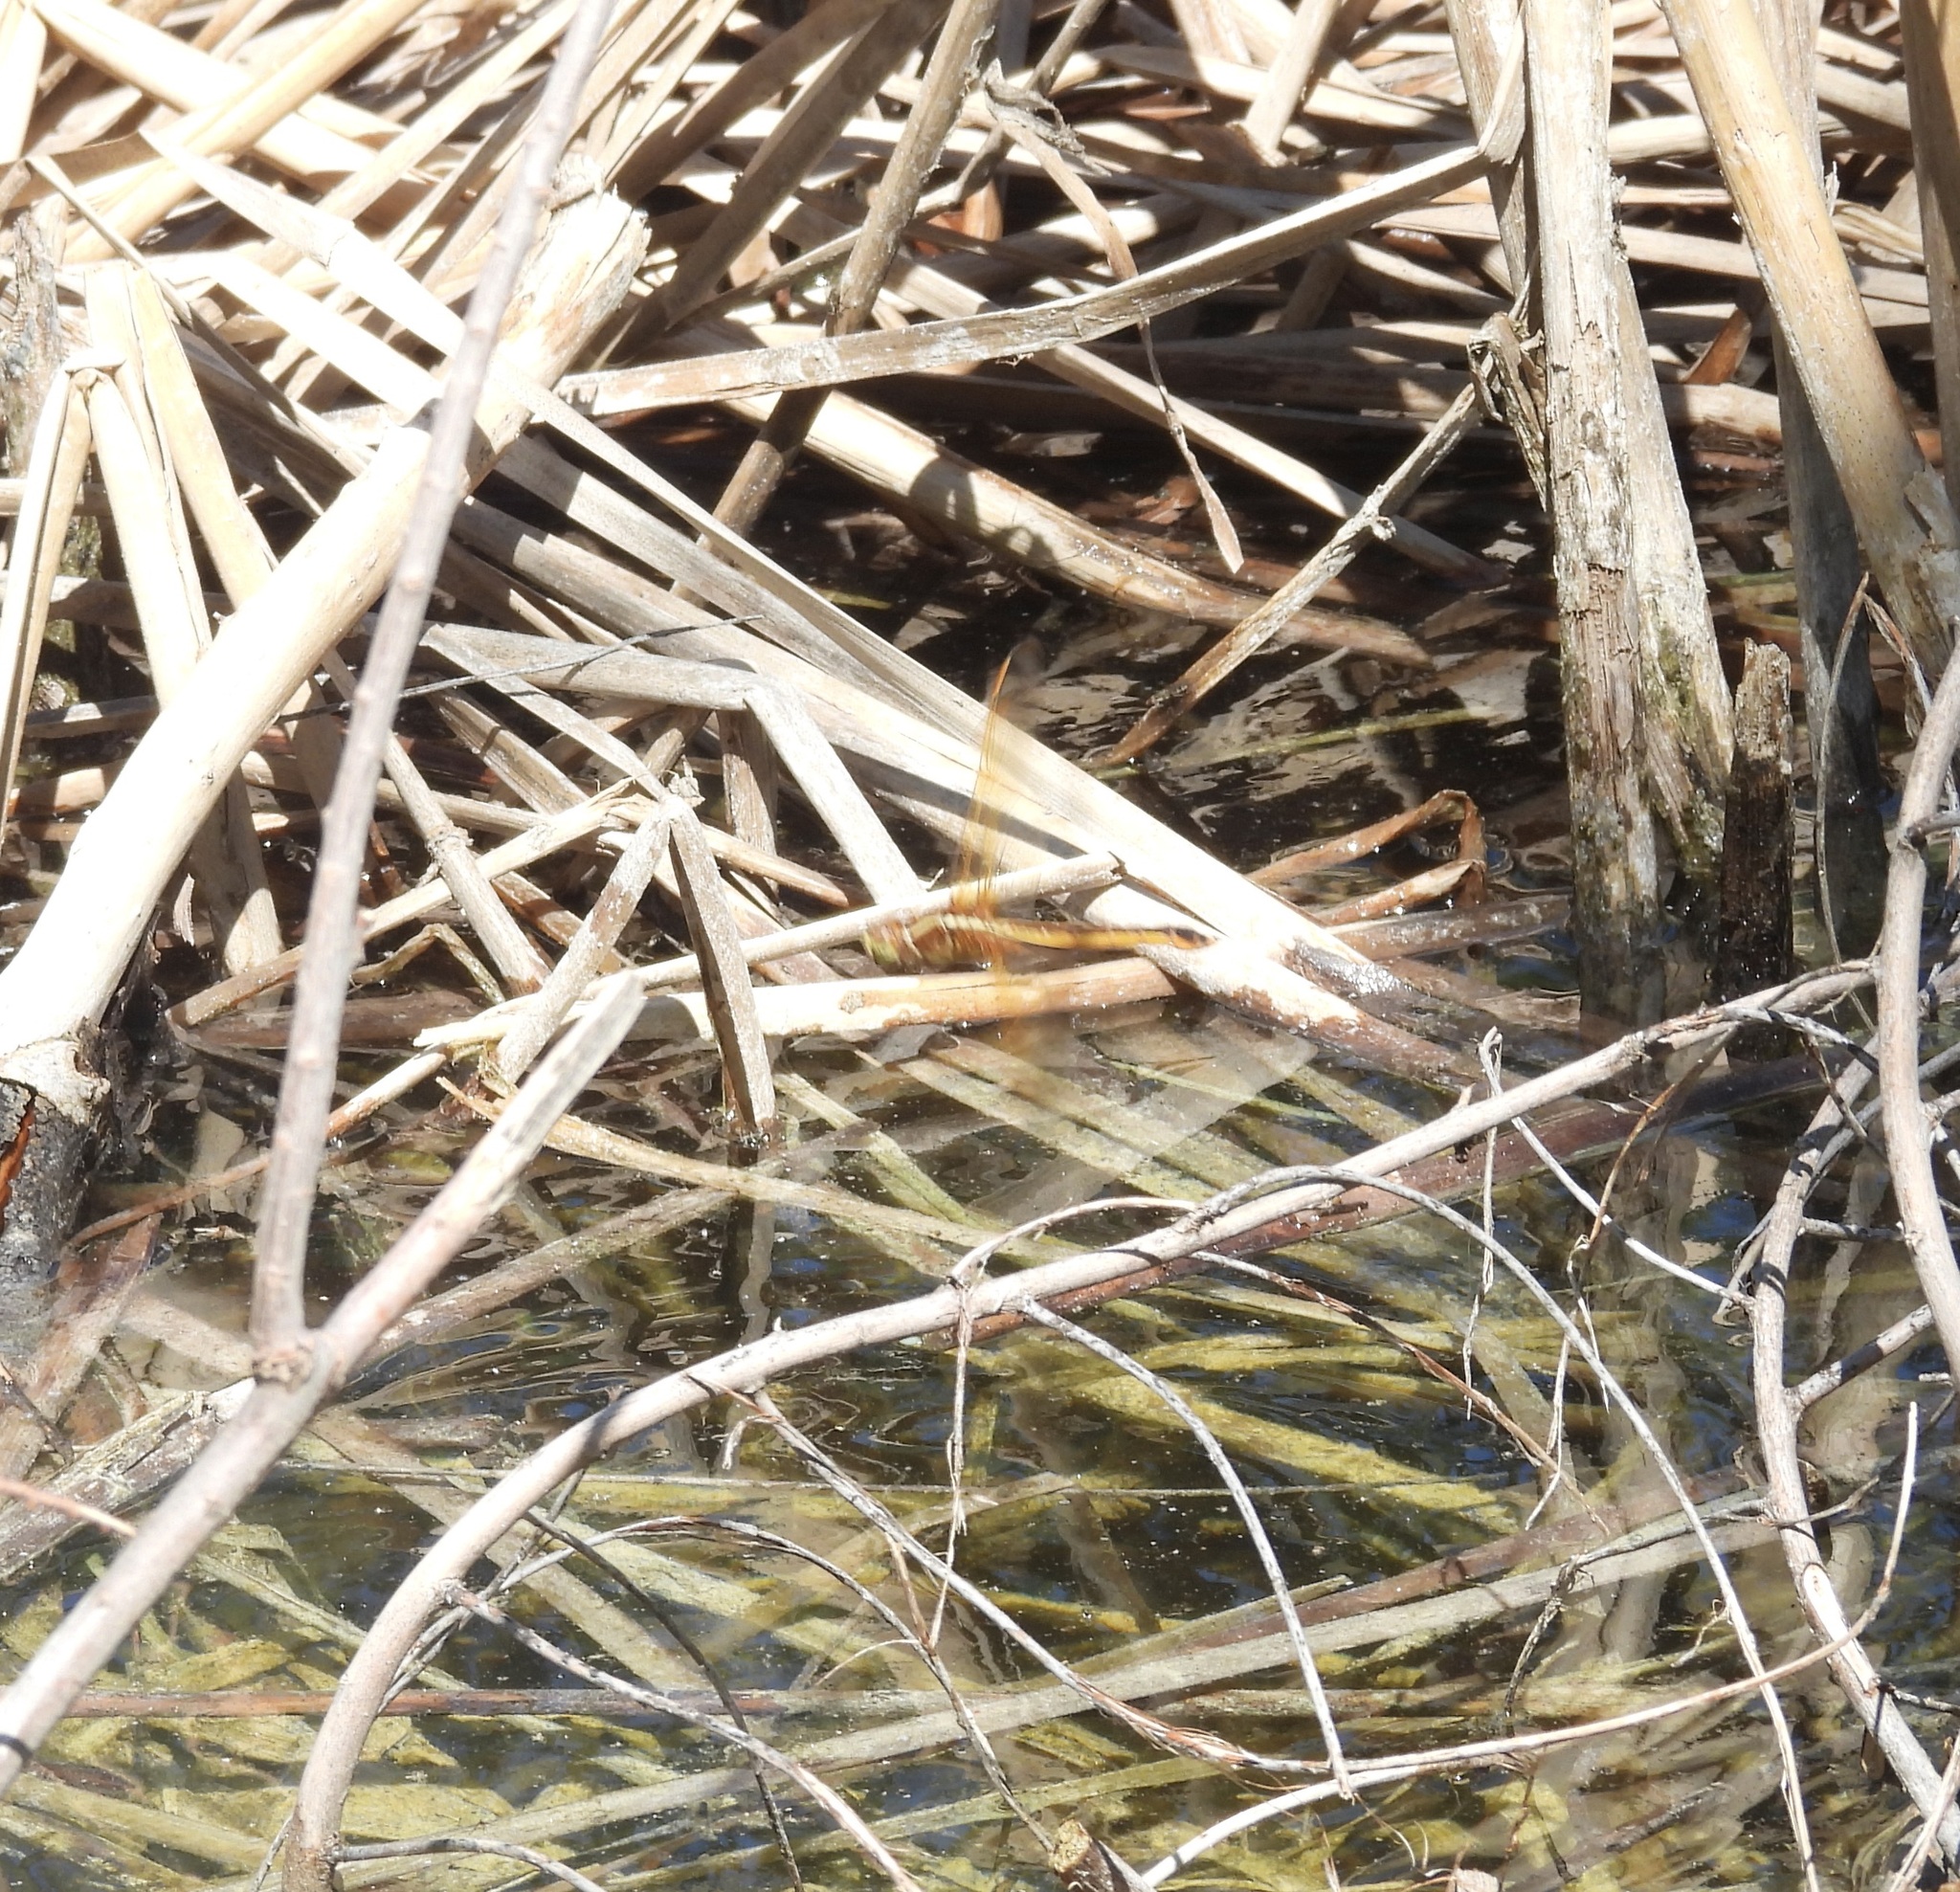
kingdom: Animalia
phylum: Arthropoda
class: Insecta
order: Odonata
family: Libellulidae
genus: Libellula
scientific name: Libellula needhami
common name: Needham's skimmer
